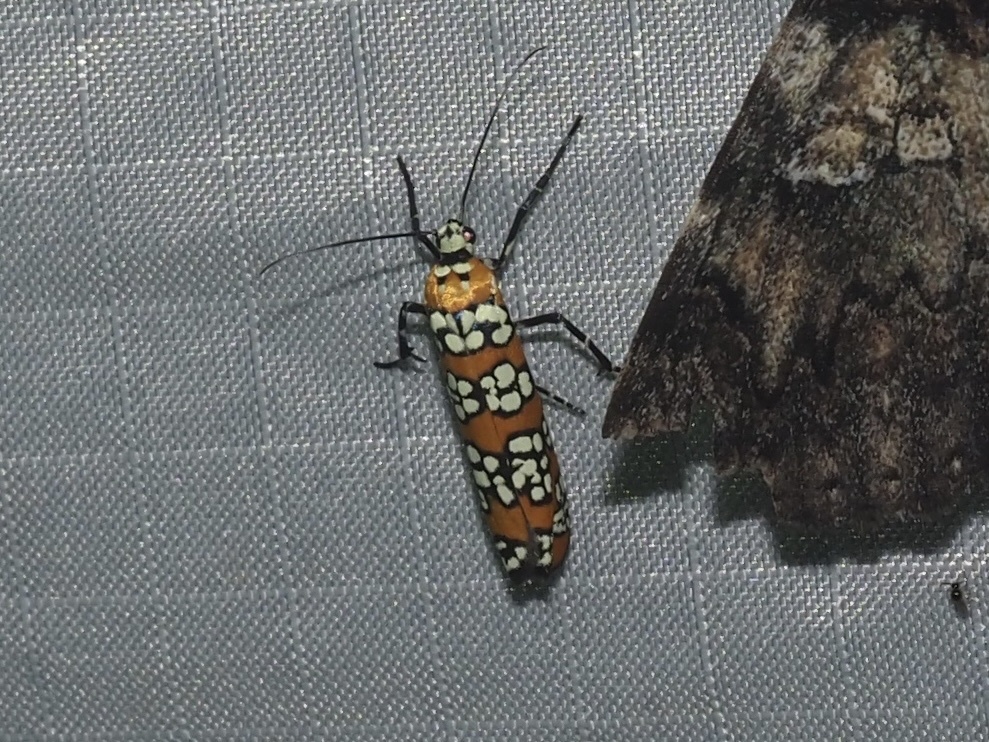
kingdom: Animalia
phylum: Arthropoda
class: Insecta
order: Lepidoptera
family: Attevidae
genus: Atteva
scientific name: Atteva punctella
